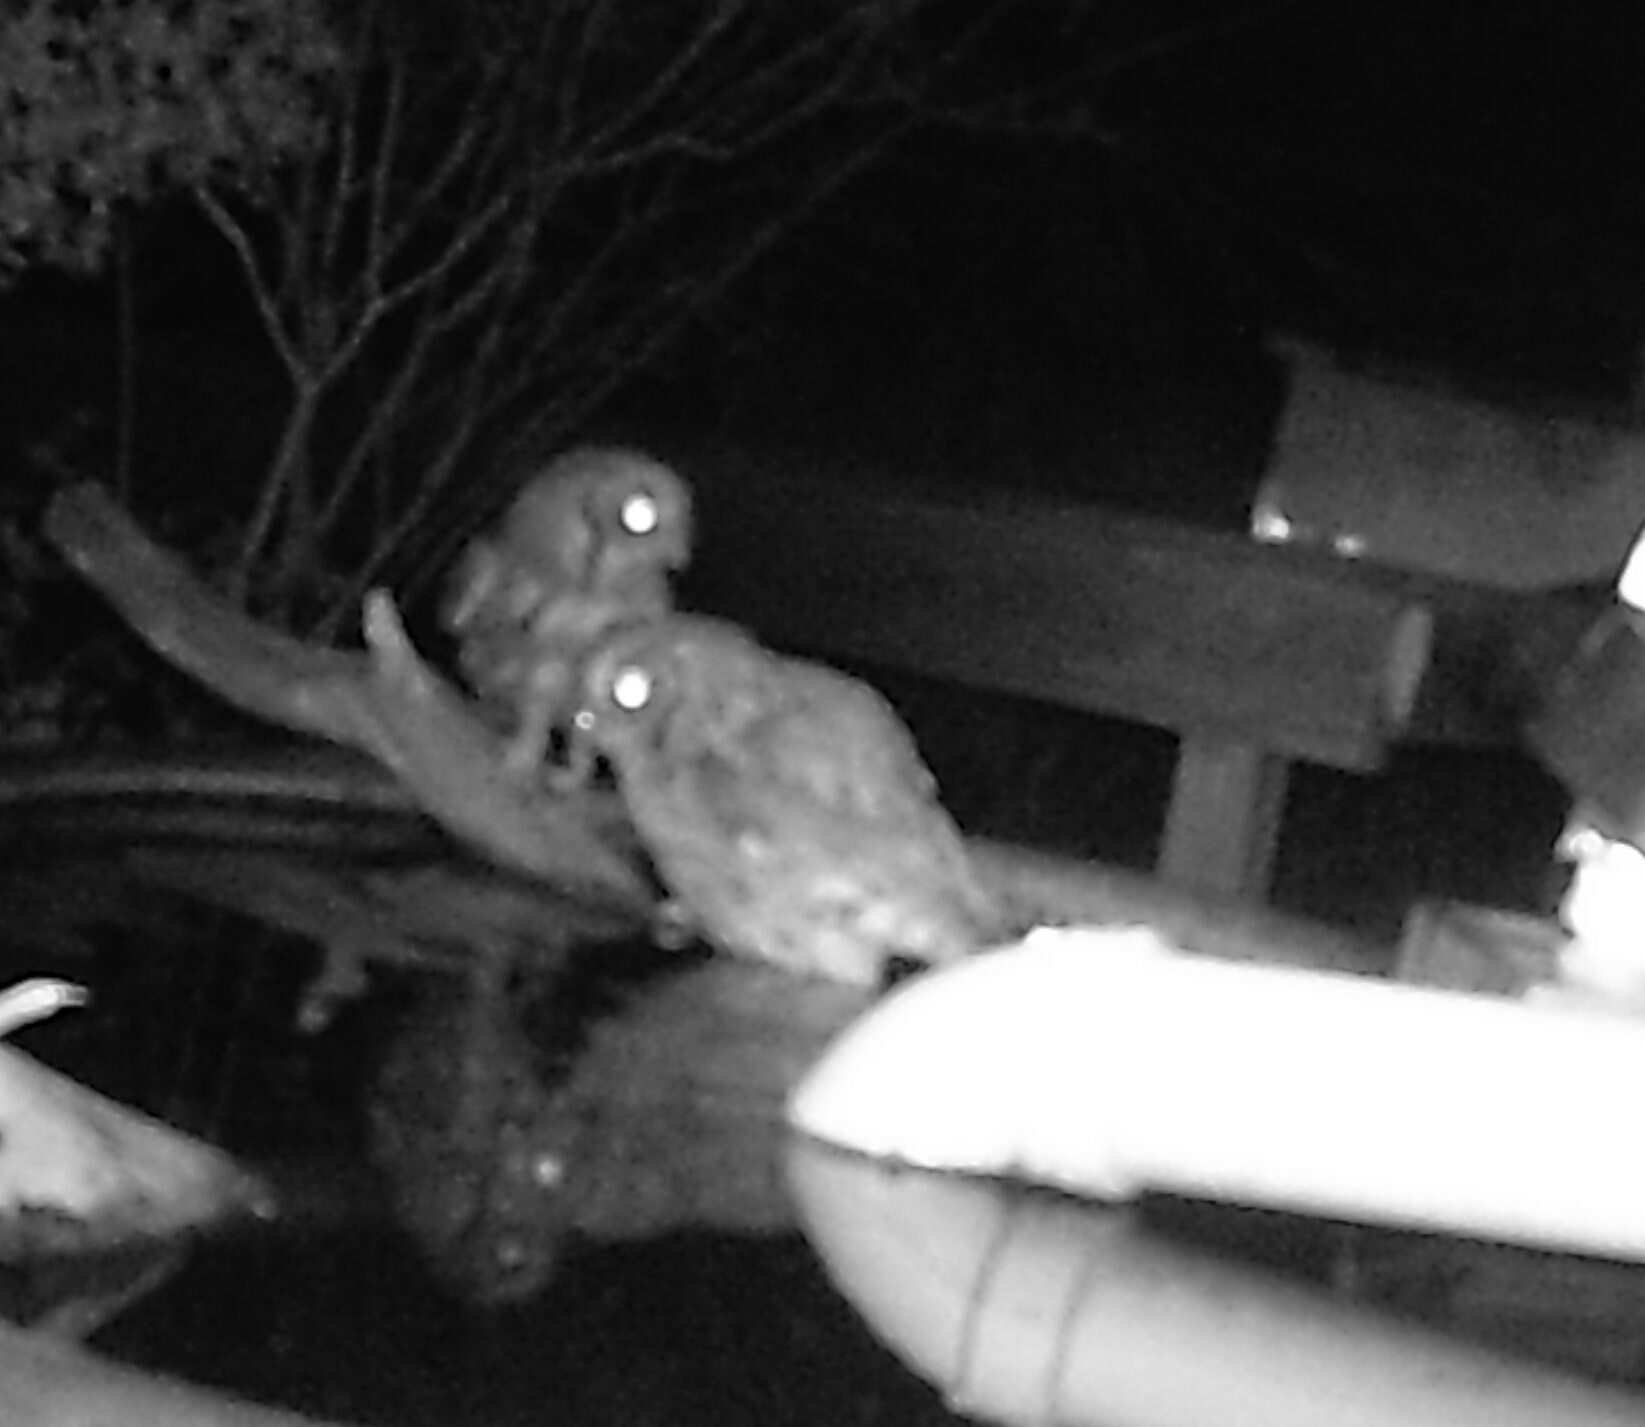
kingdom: Animalia
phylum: Chordata
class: Aves
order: Strigiformes
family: Strigidae
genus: Megascops
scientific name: Megascops asio
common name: Eastern screech-owl
